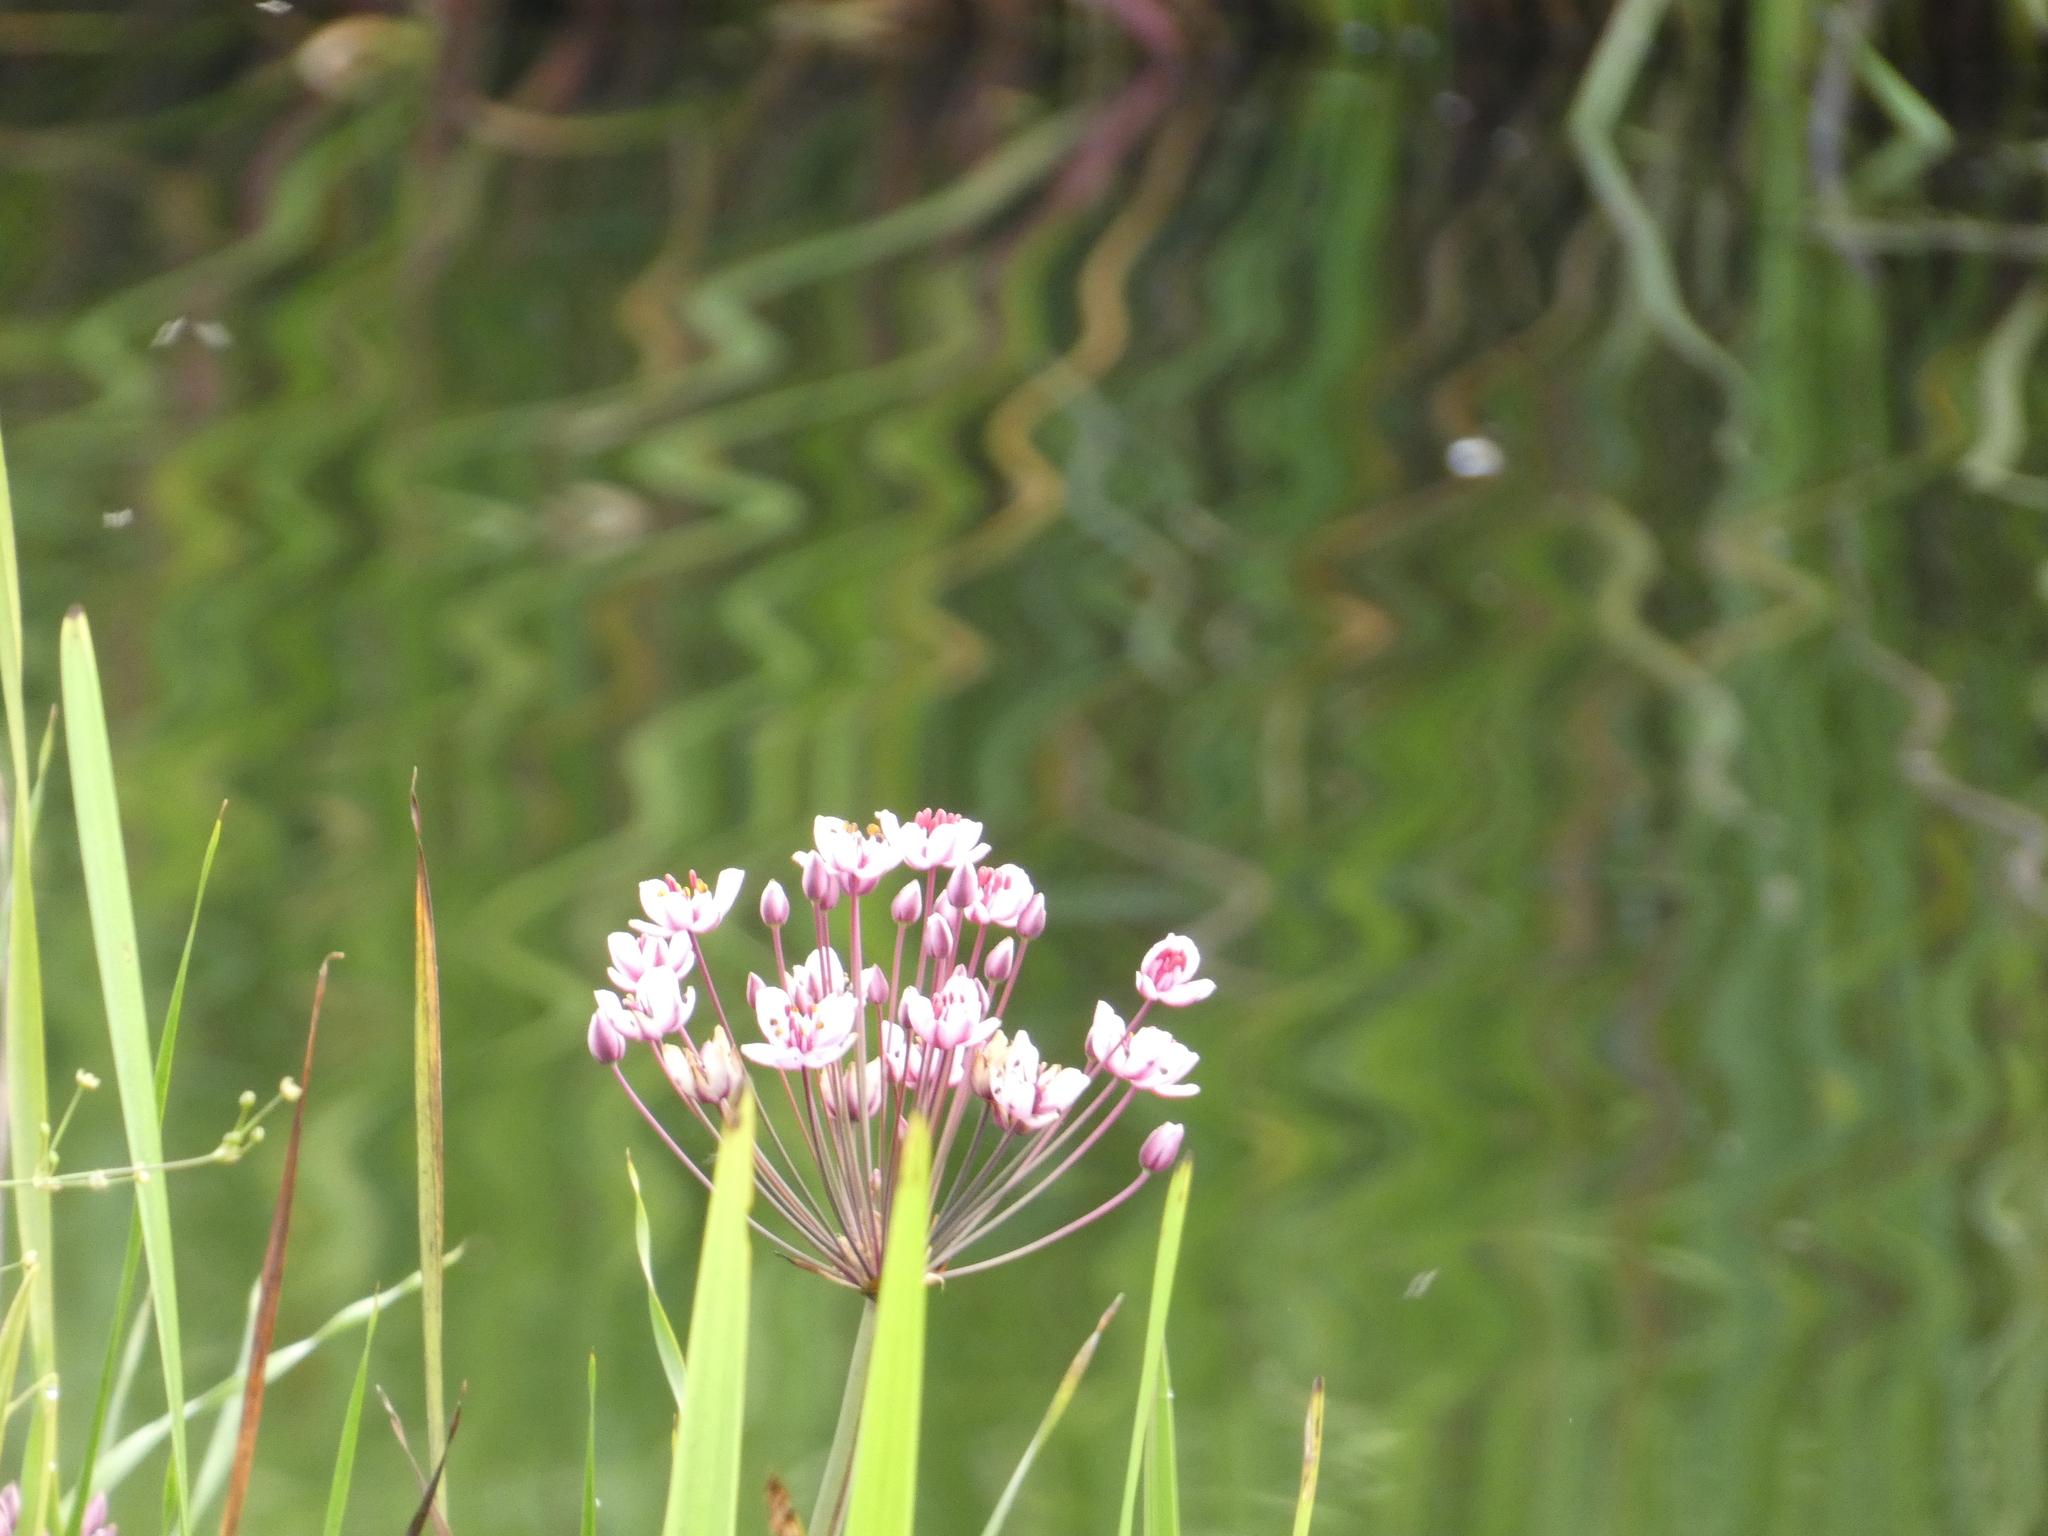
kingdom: Plantae
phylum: Tracheophyta
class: Liliopsida
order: Alismatales
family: Butomaceae
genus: Butomus
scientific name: Butomus umbellatus
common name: Flowering-rush
